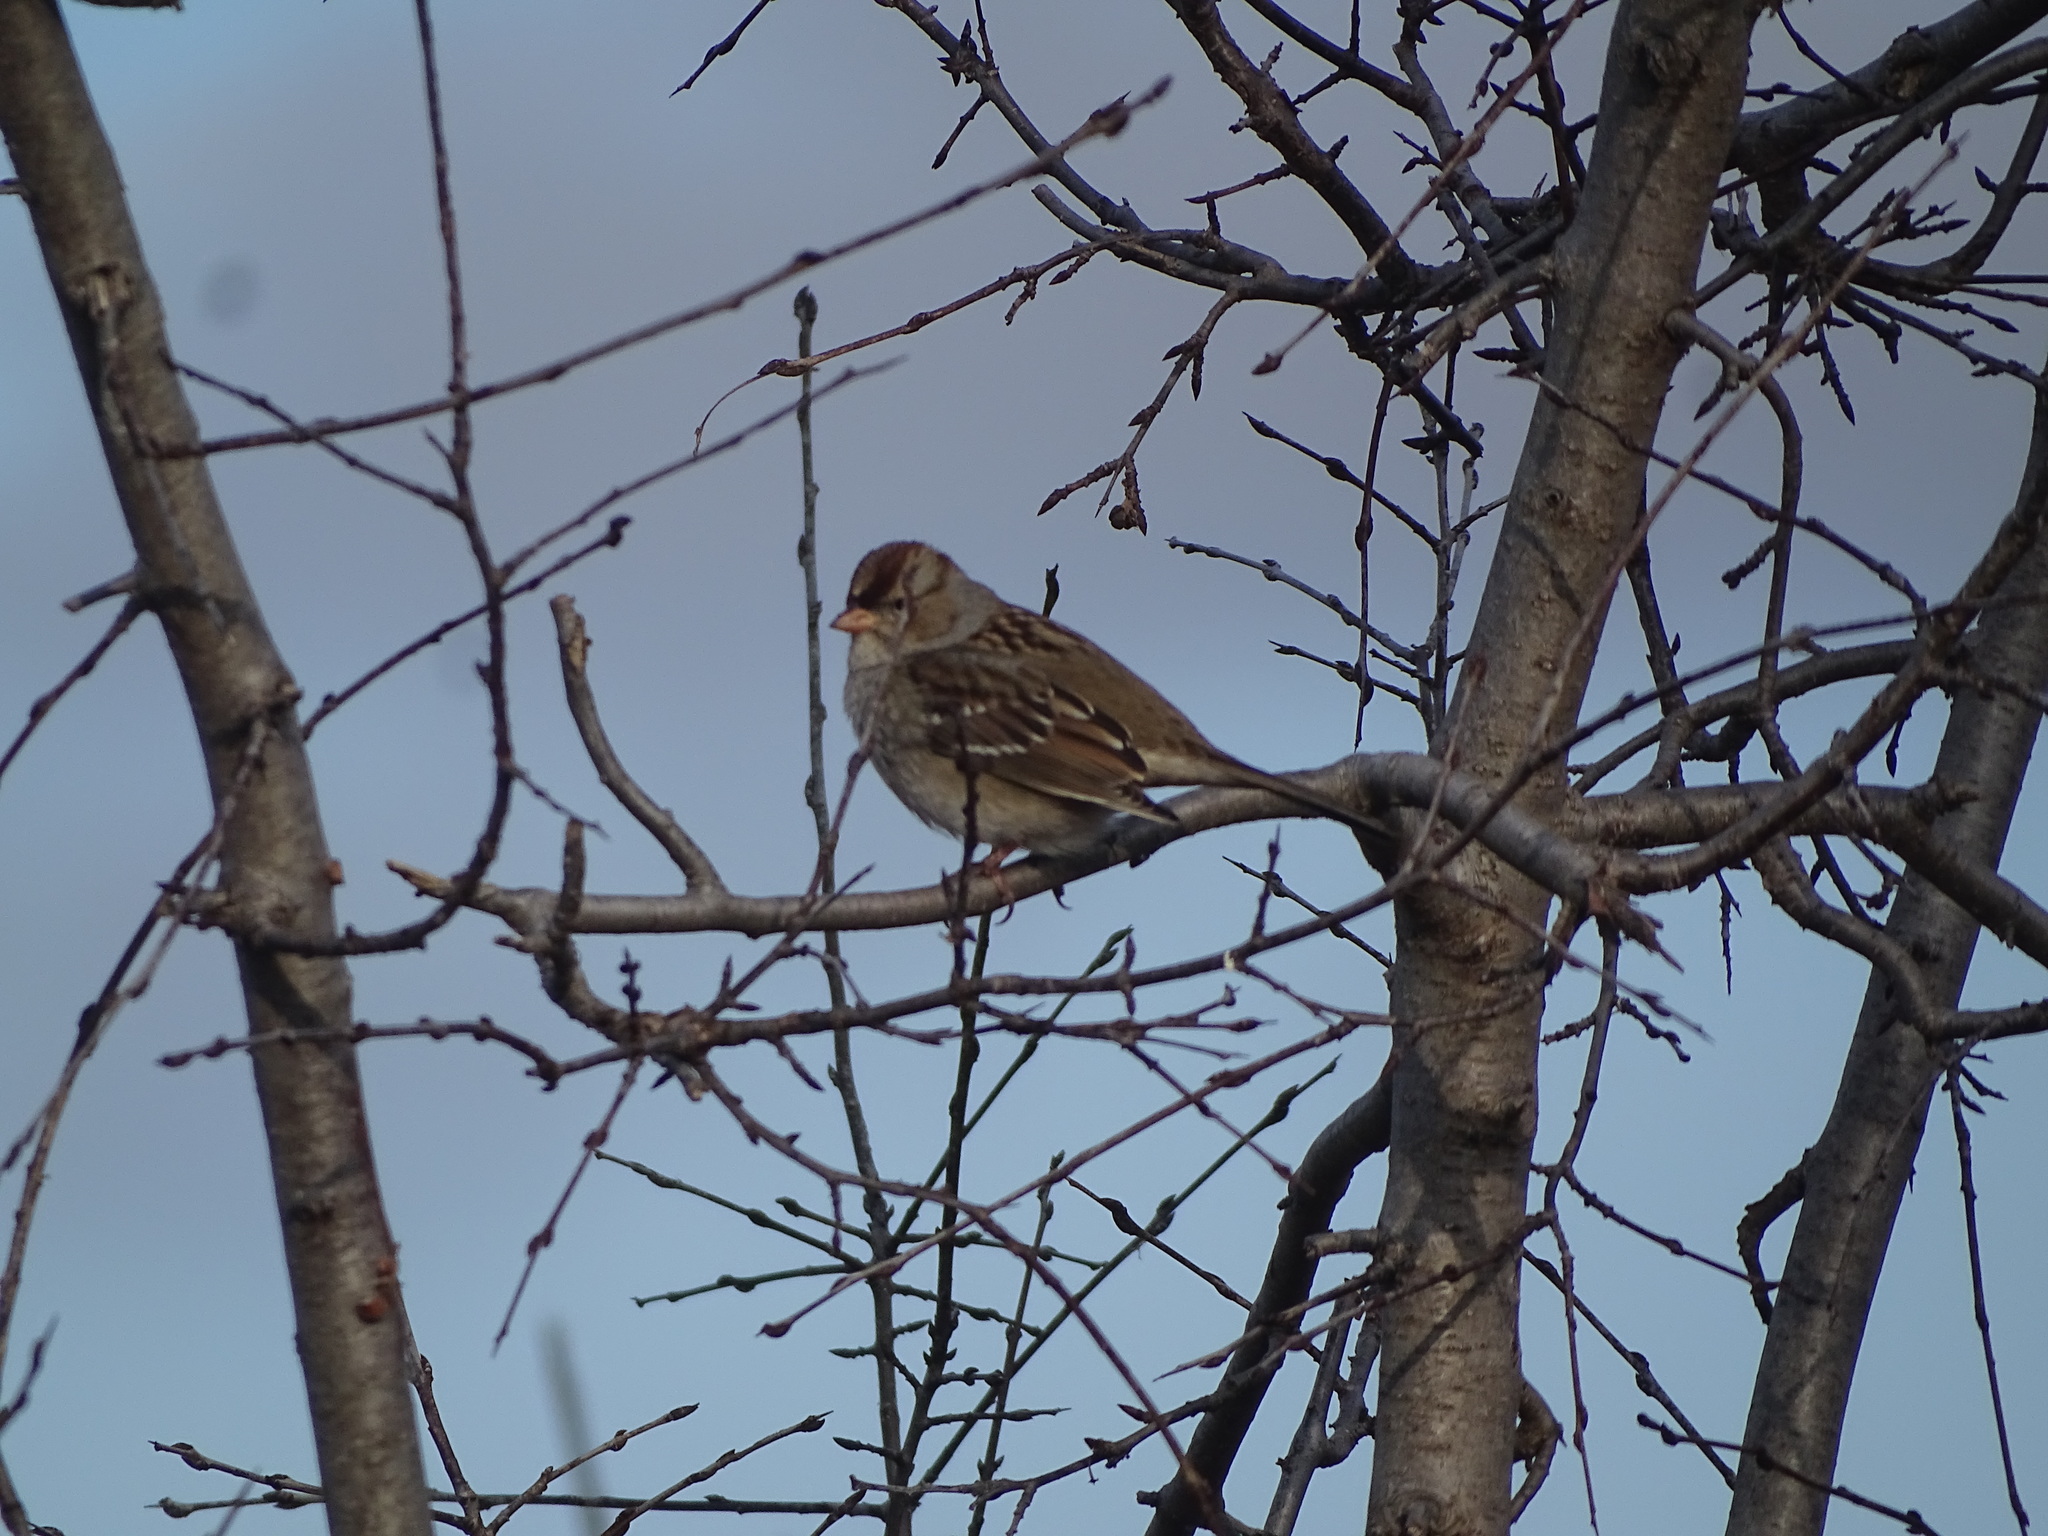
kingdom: Animalia
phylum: Chordata
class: Aves
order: Passeriformes
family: Passerellidae
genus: Zonotrichia
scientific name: Zonotrichia leucophrys
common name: White-crowned sparrow
